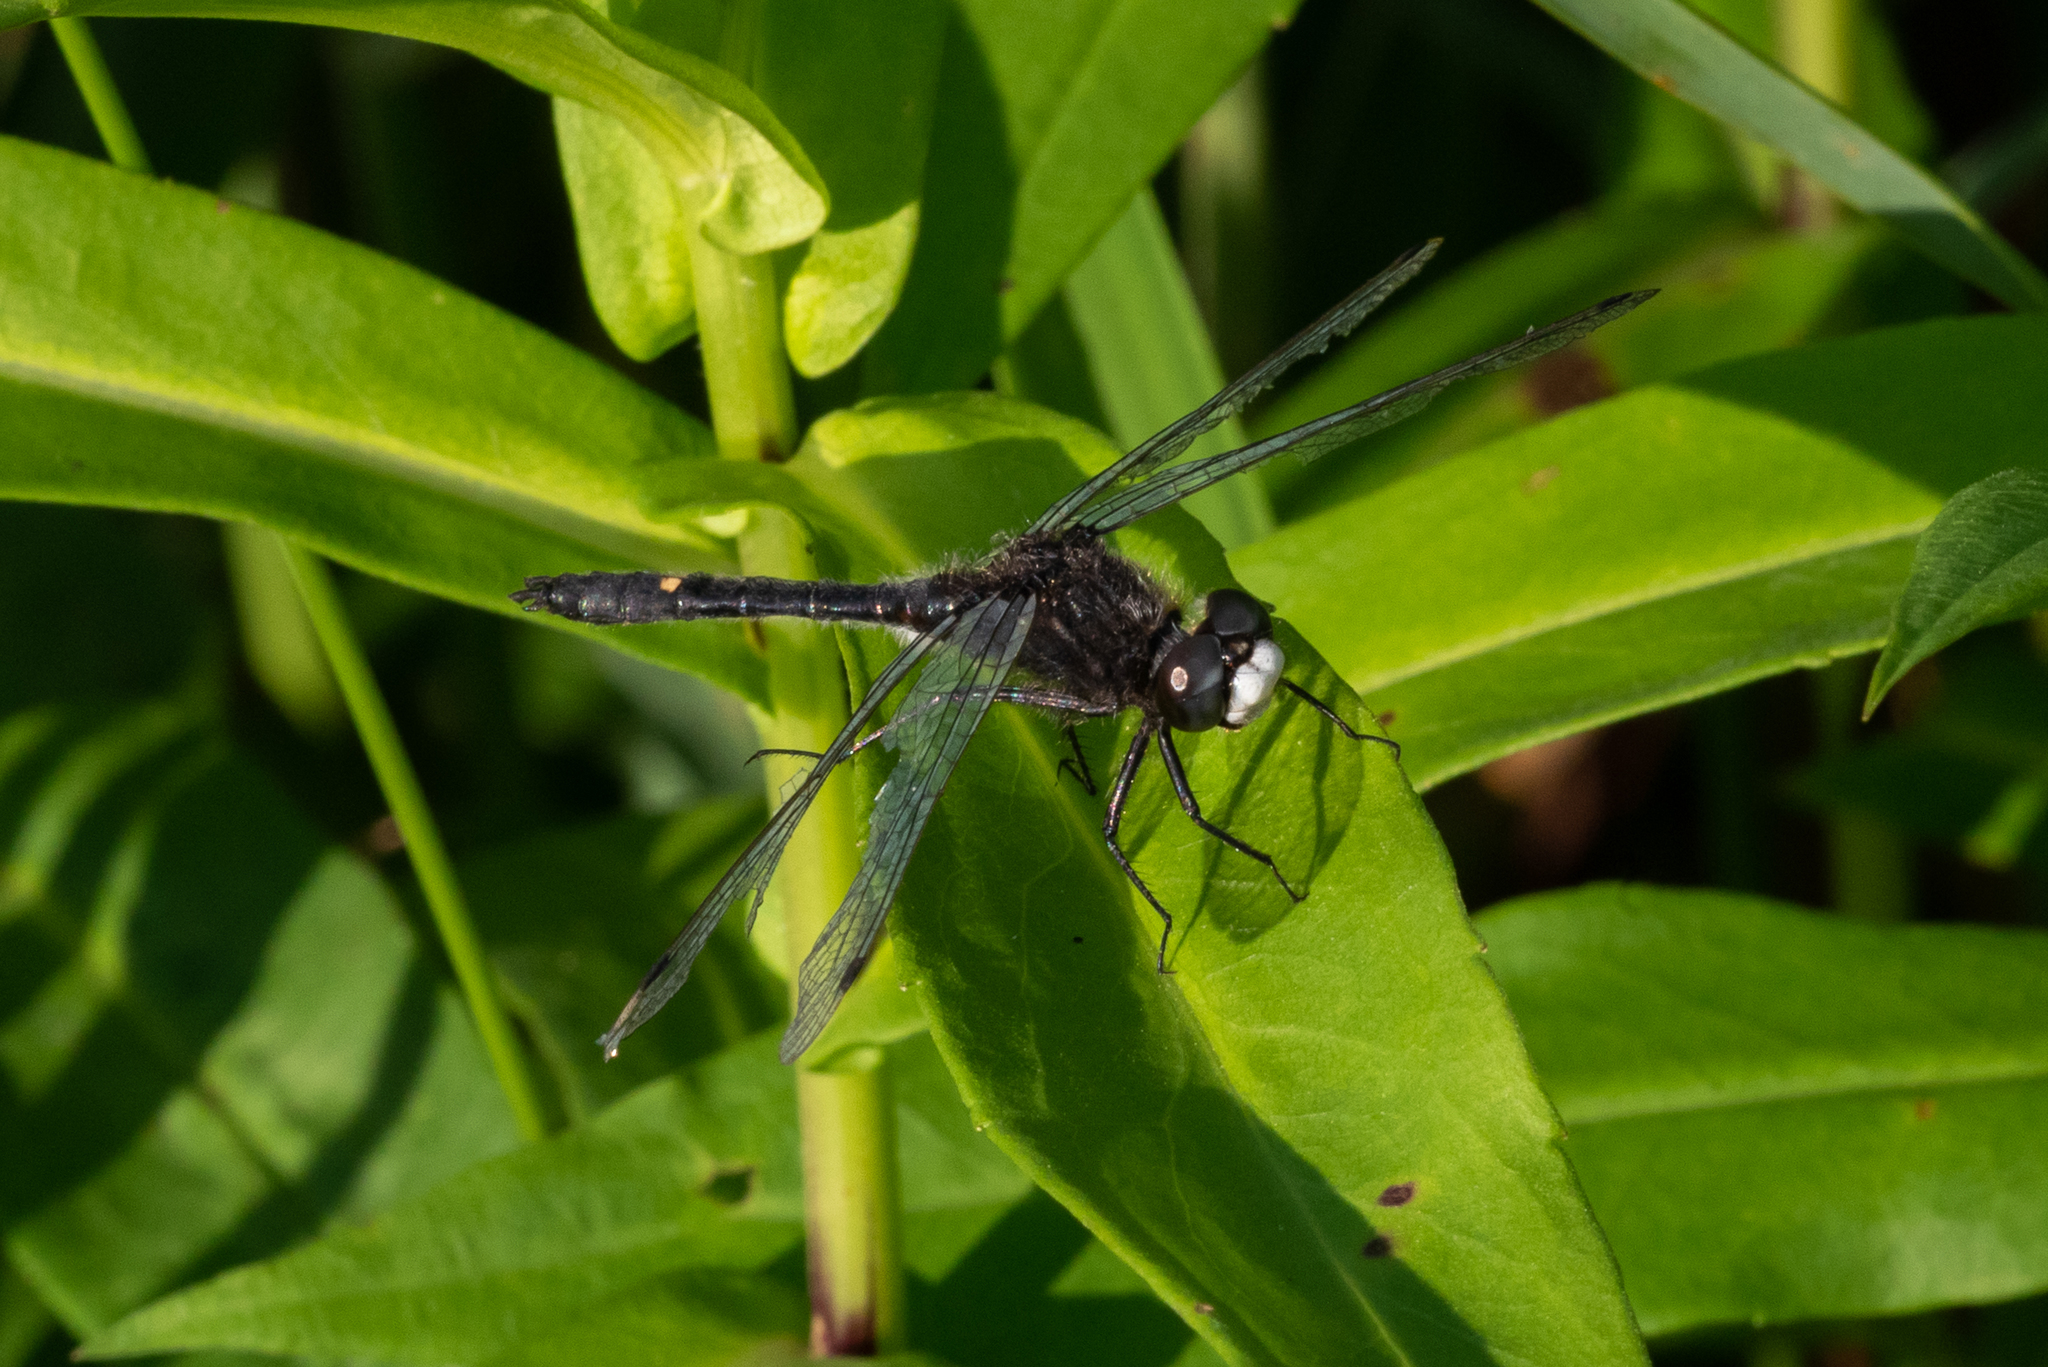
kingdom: Animalia
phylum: Arthropoda
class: Insecta
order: Odonata
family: Libellulidae
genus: Leucorrhinia
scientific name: Leucorrhinia intacta
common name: Dot-tailed whiteface
